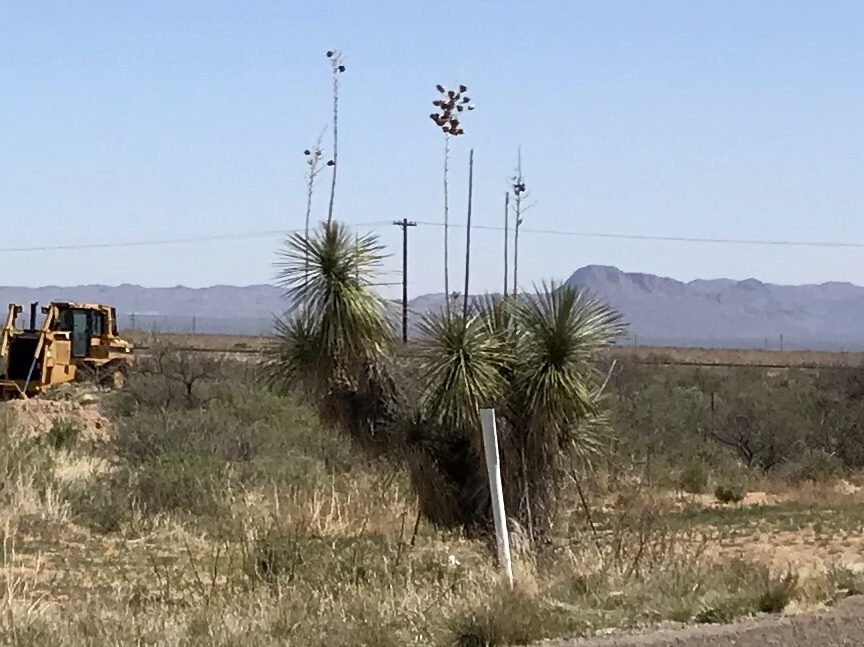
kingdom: Plantae
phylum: Tracheophyta
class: Liliopsida
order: Asparagales
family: Asparagaceae
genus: Yucca
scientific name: Yucca elata
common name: Palmella
